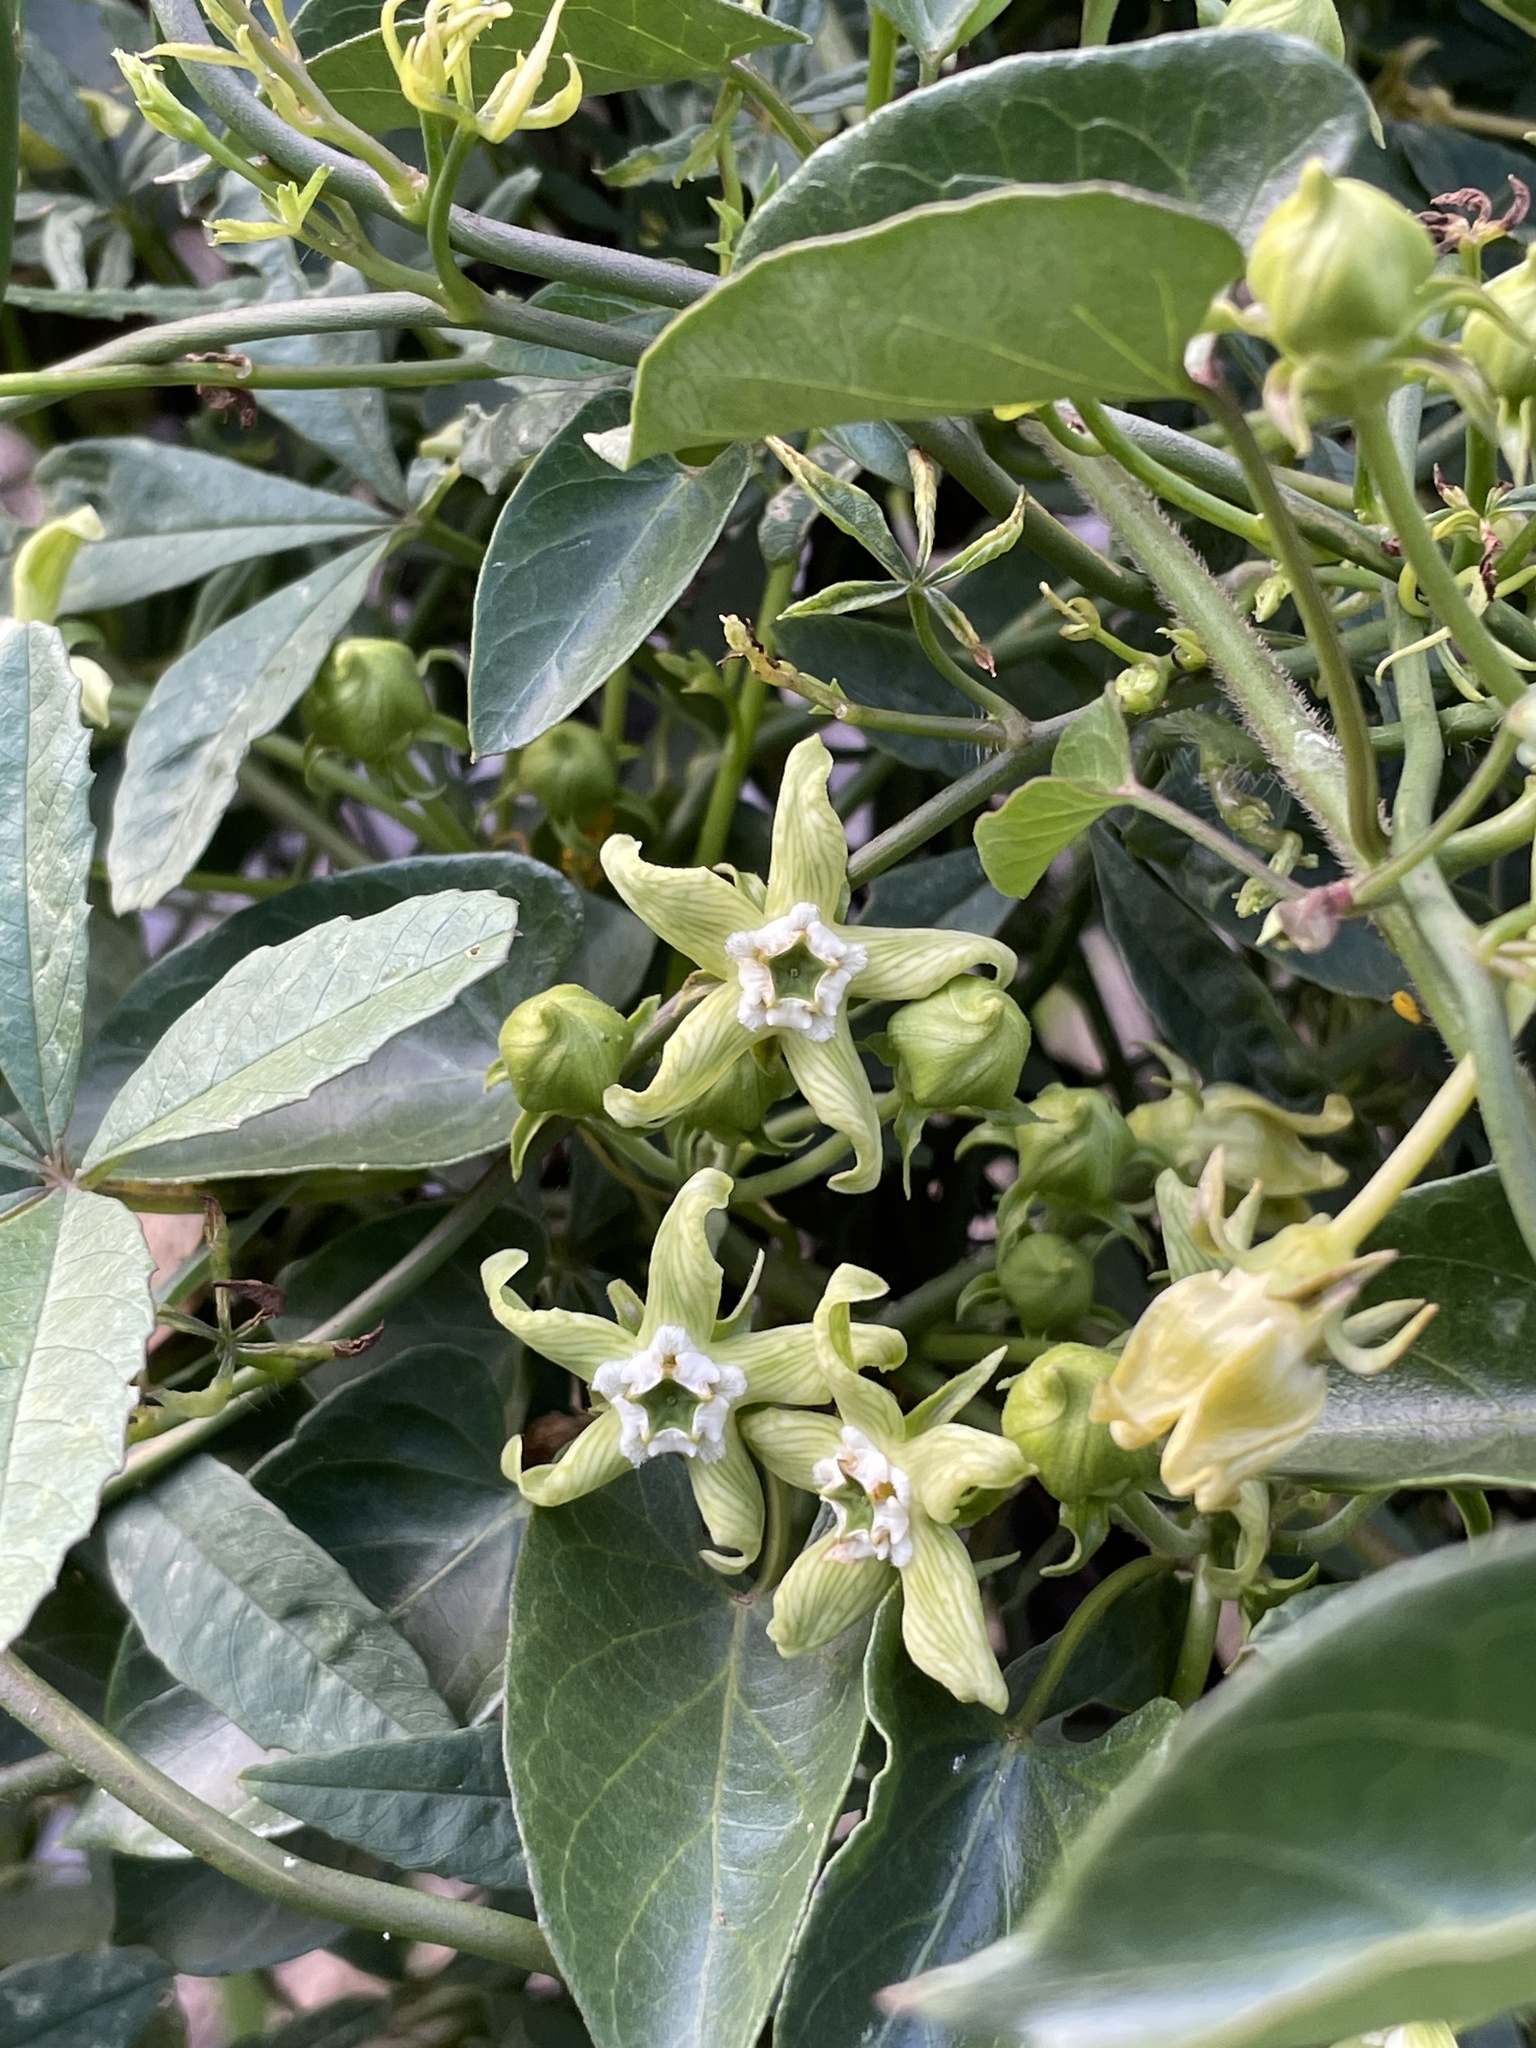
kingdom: Plantae
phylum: Tracheophyta
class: Magnoliopsida
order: Gentianales
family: Apocynaceae
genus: Gonolobus
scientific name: Gonolobus pectinatus
